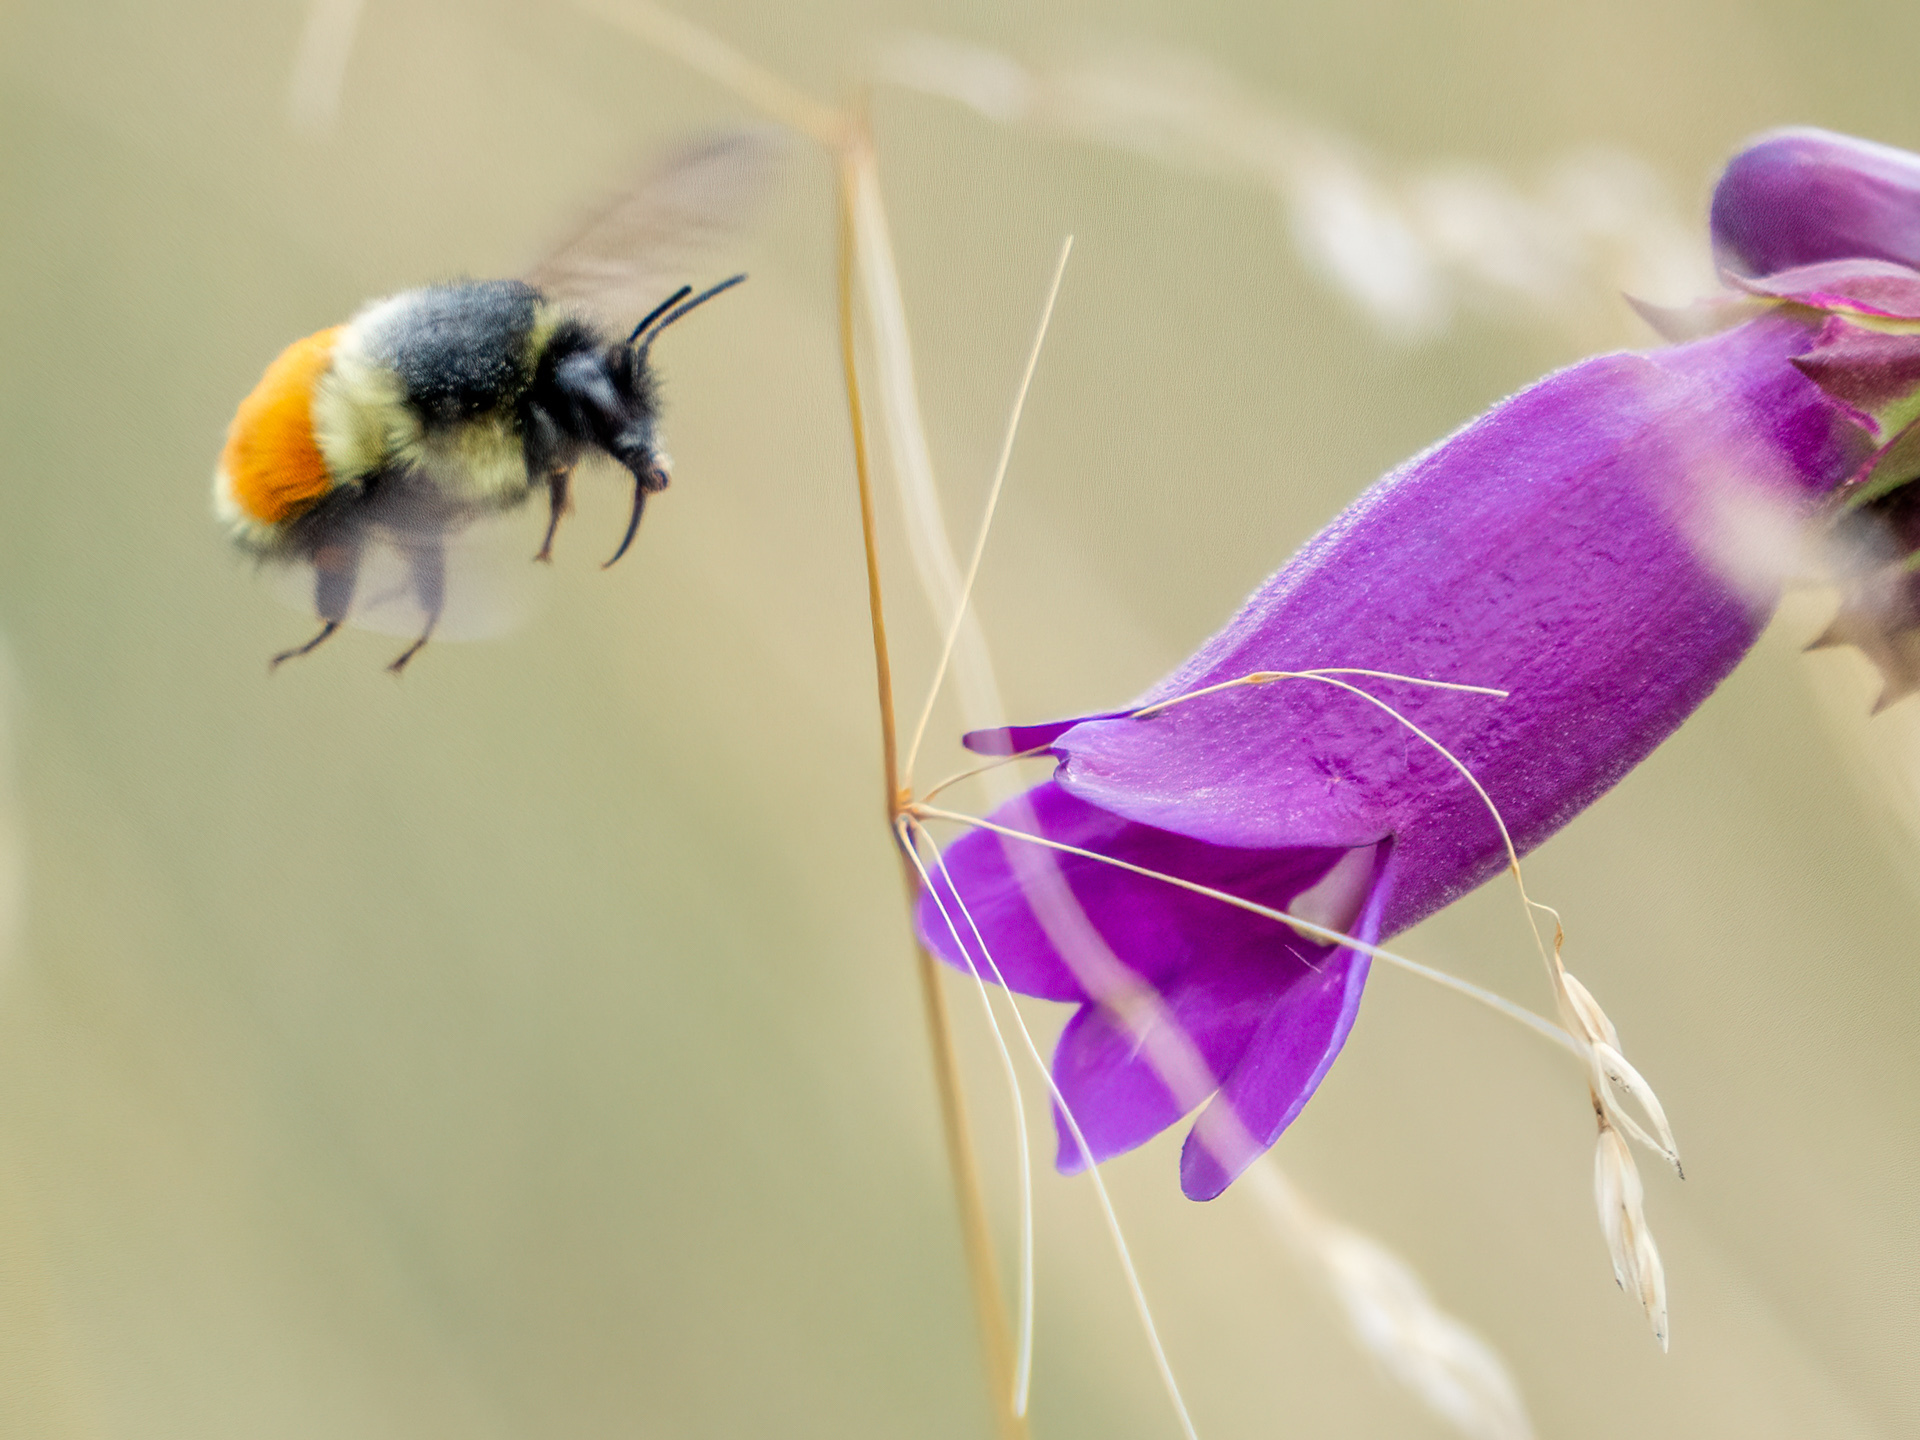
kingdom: Animalia
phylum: Arthropoda
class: Insecta
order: Hymenoptera
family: Apidae
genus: Bombus
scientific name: Bombus huntii
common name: Hunt bumble bee
